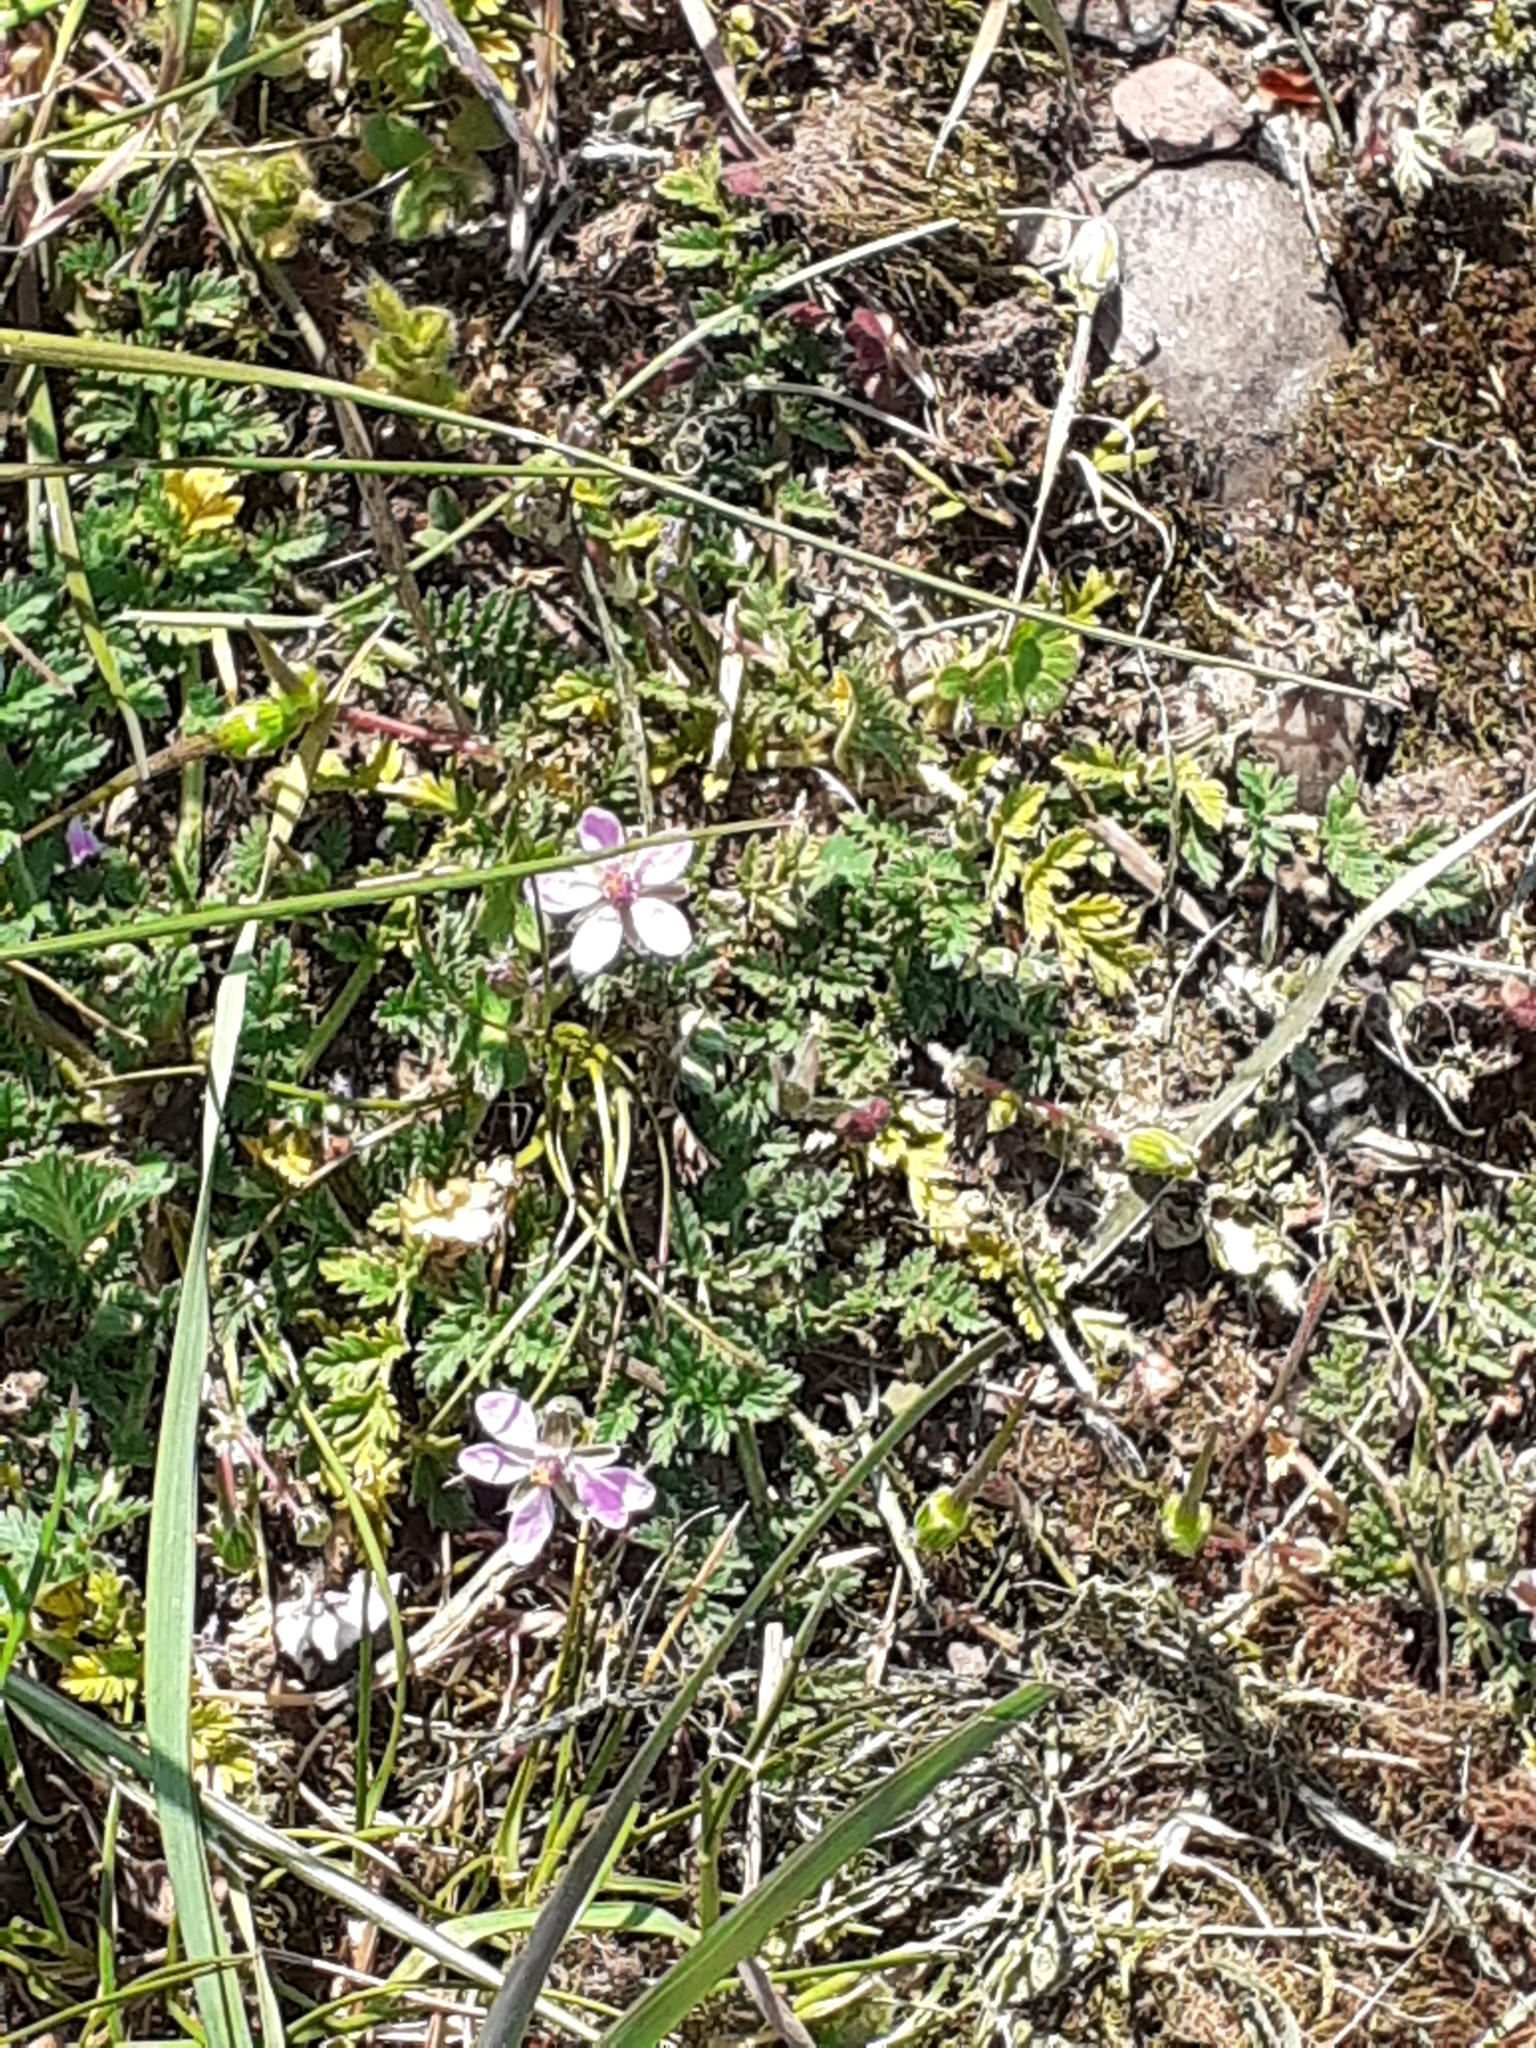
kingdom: Plantae
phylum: Tracheophyta
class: Magnoliopsida
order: Geraniales
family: Geraniaceae
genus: Erodium
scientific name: Erodium cicutarium
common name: Common stork's-bill
